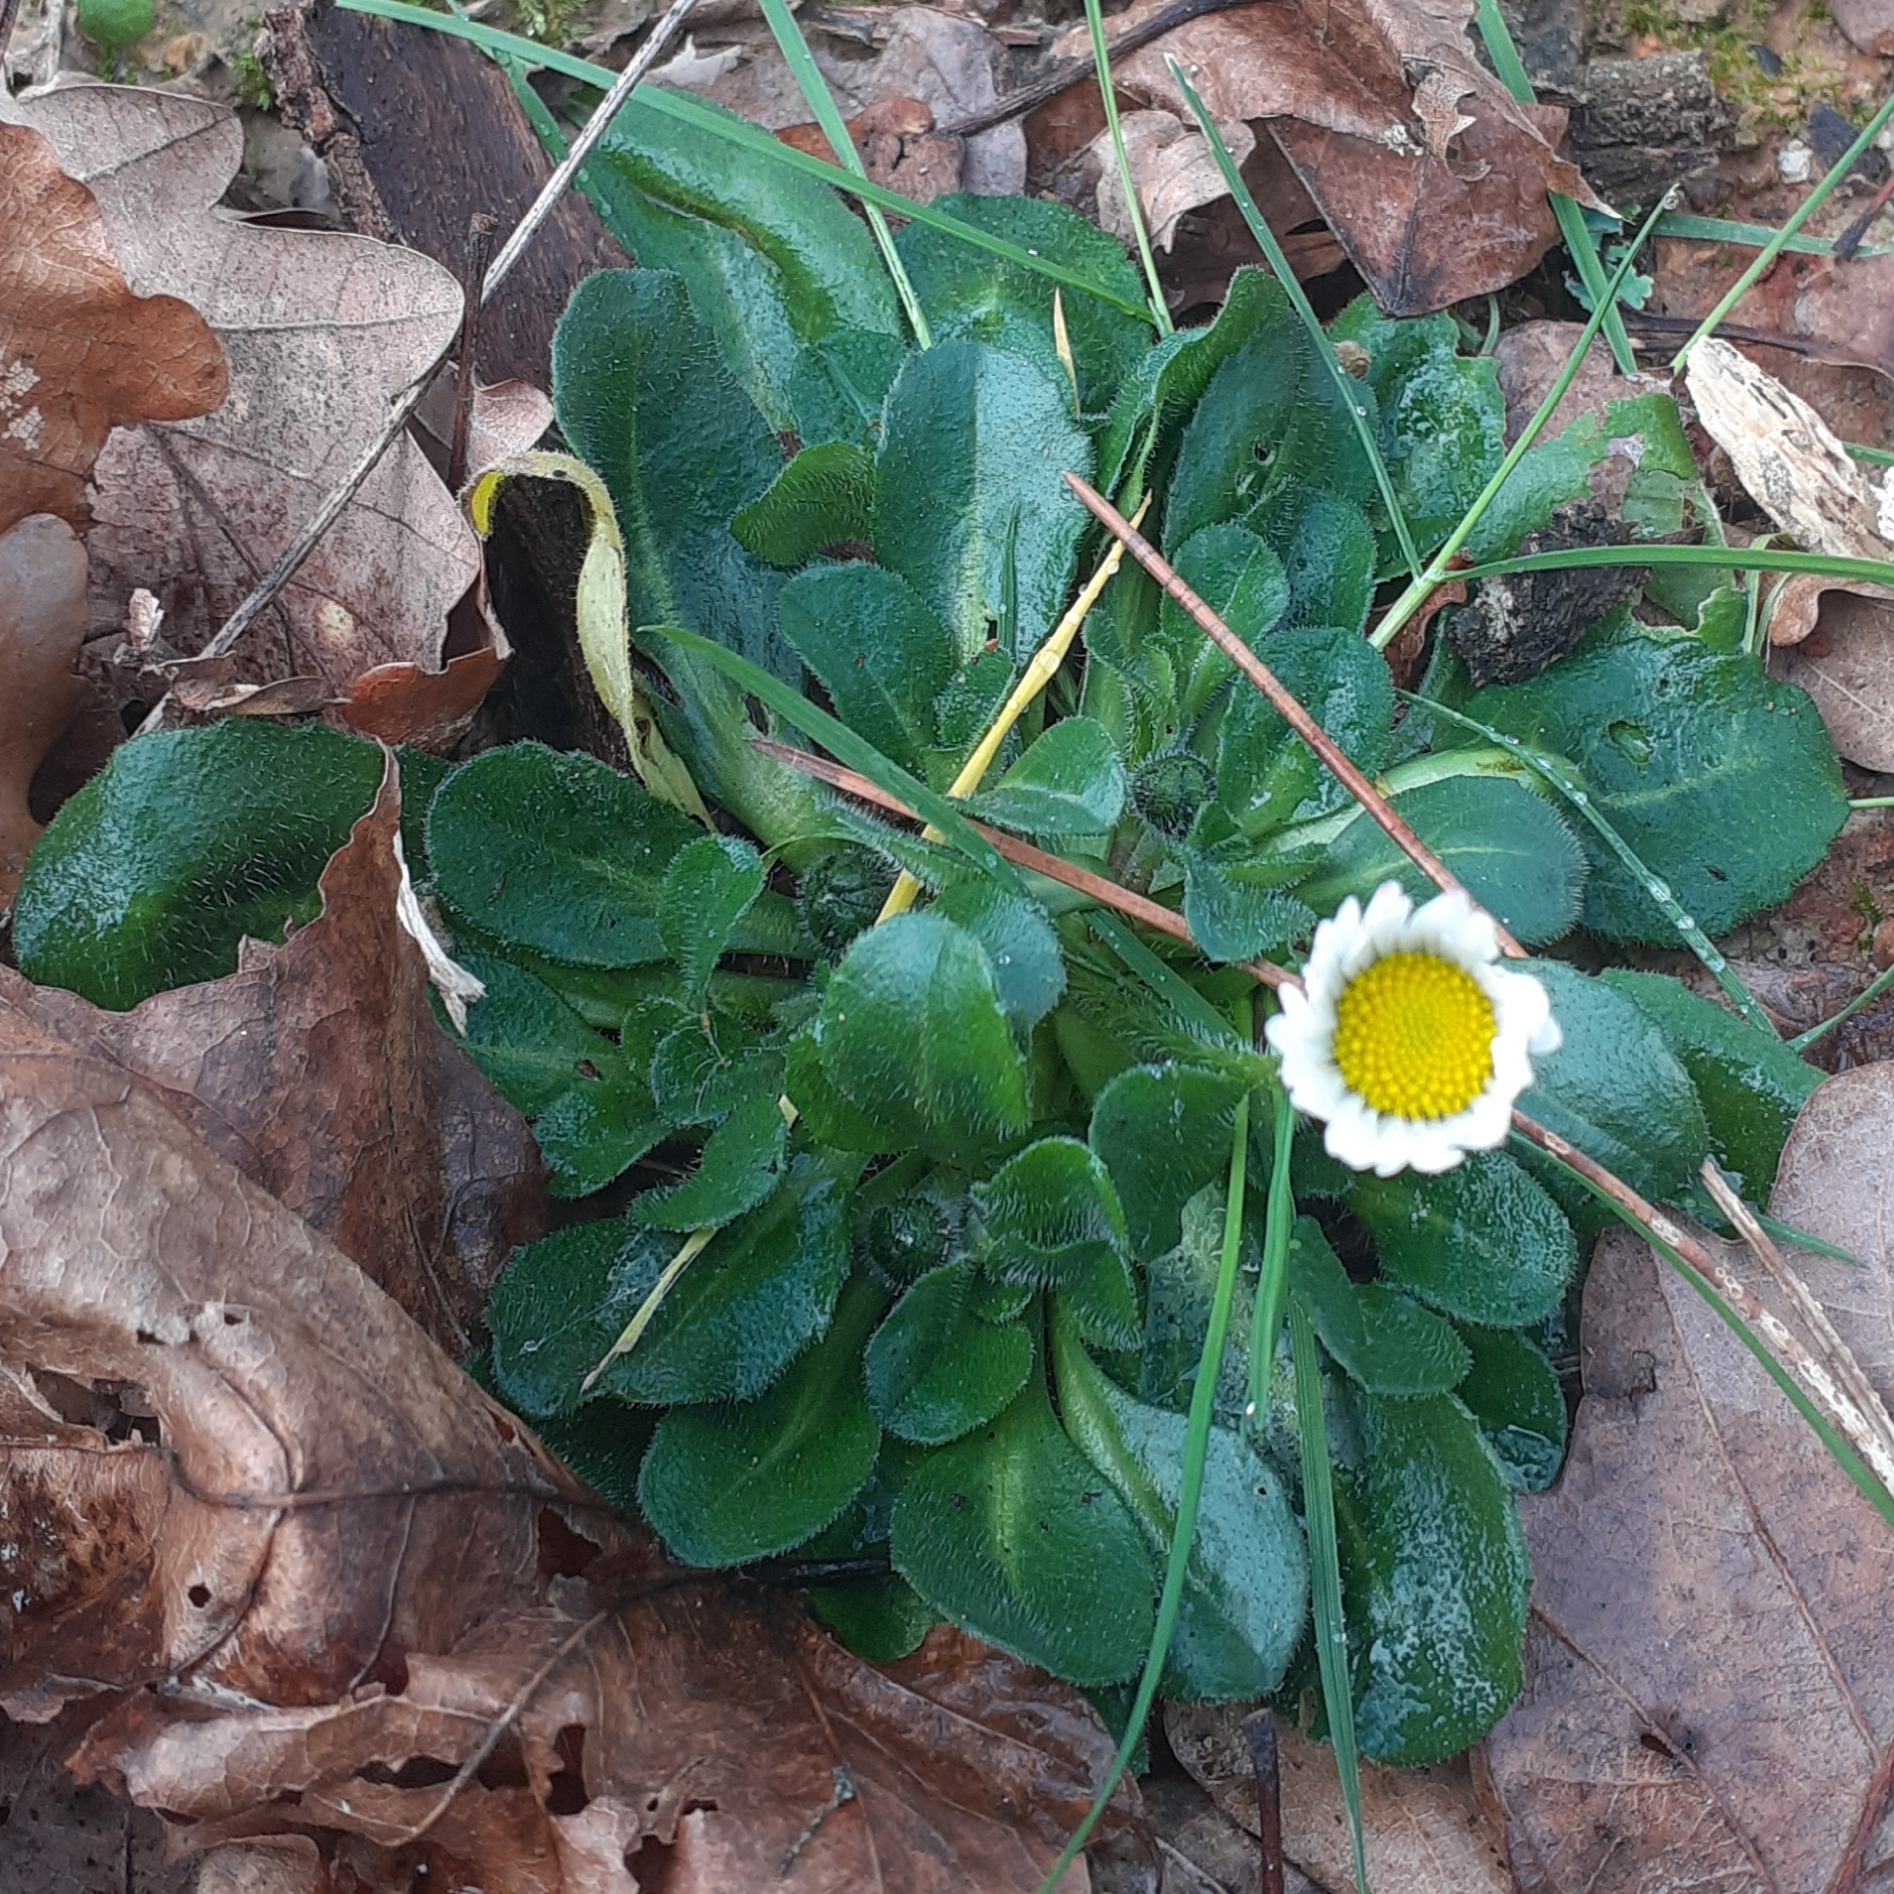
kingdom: Plantae
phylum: Tracheophyta
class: Magnoliopsida
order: Asterales
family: Asteraceae
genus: Bellis
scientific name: Bellis perennis
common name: Lawndaisy
